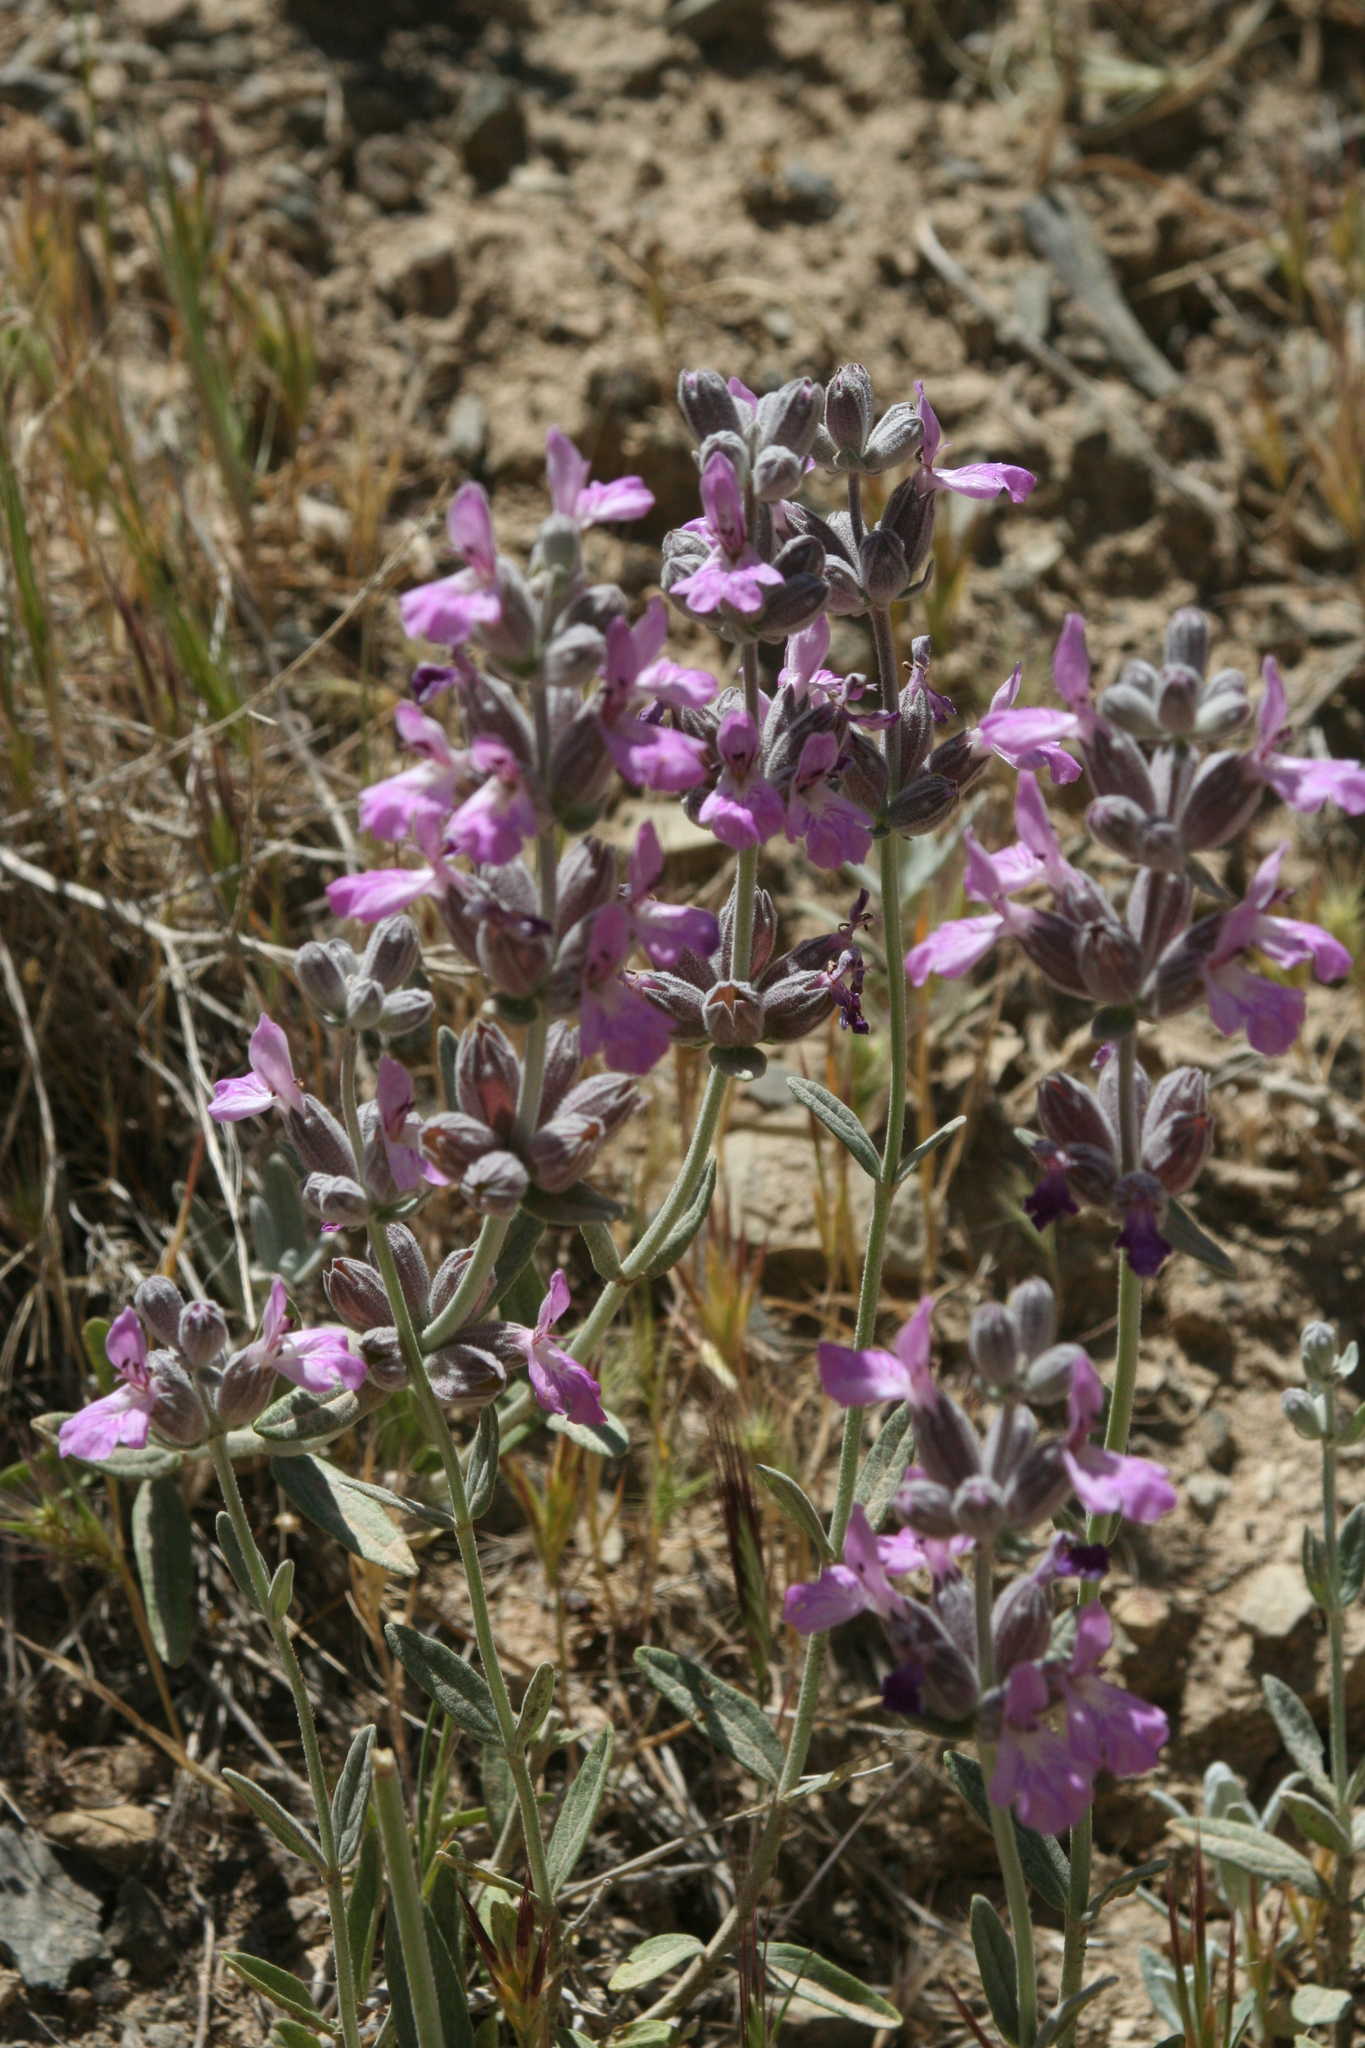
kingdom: Plantae
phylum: Tracheophyta
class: Magnoliopsida
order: Lamiales
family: Lamiaceae
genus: Stachys
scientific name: Stachys inflata
